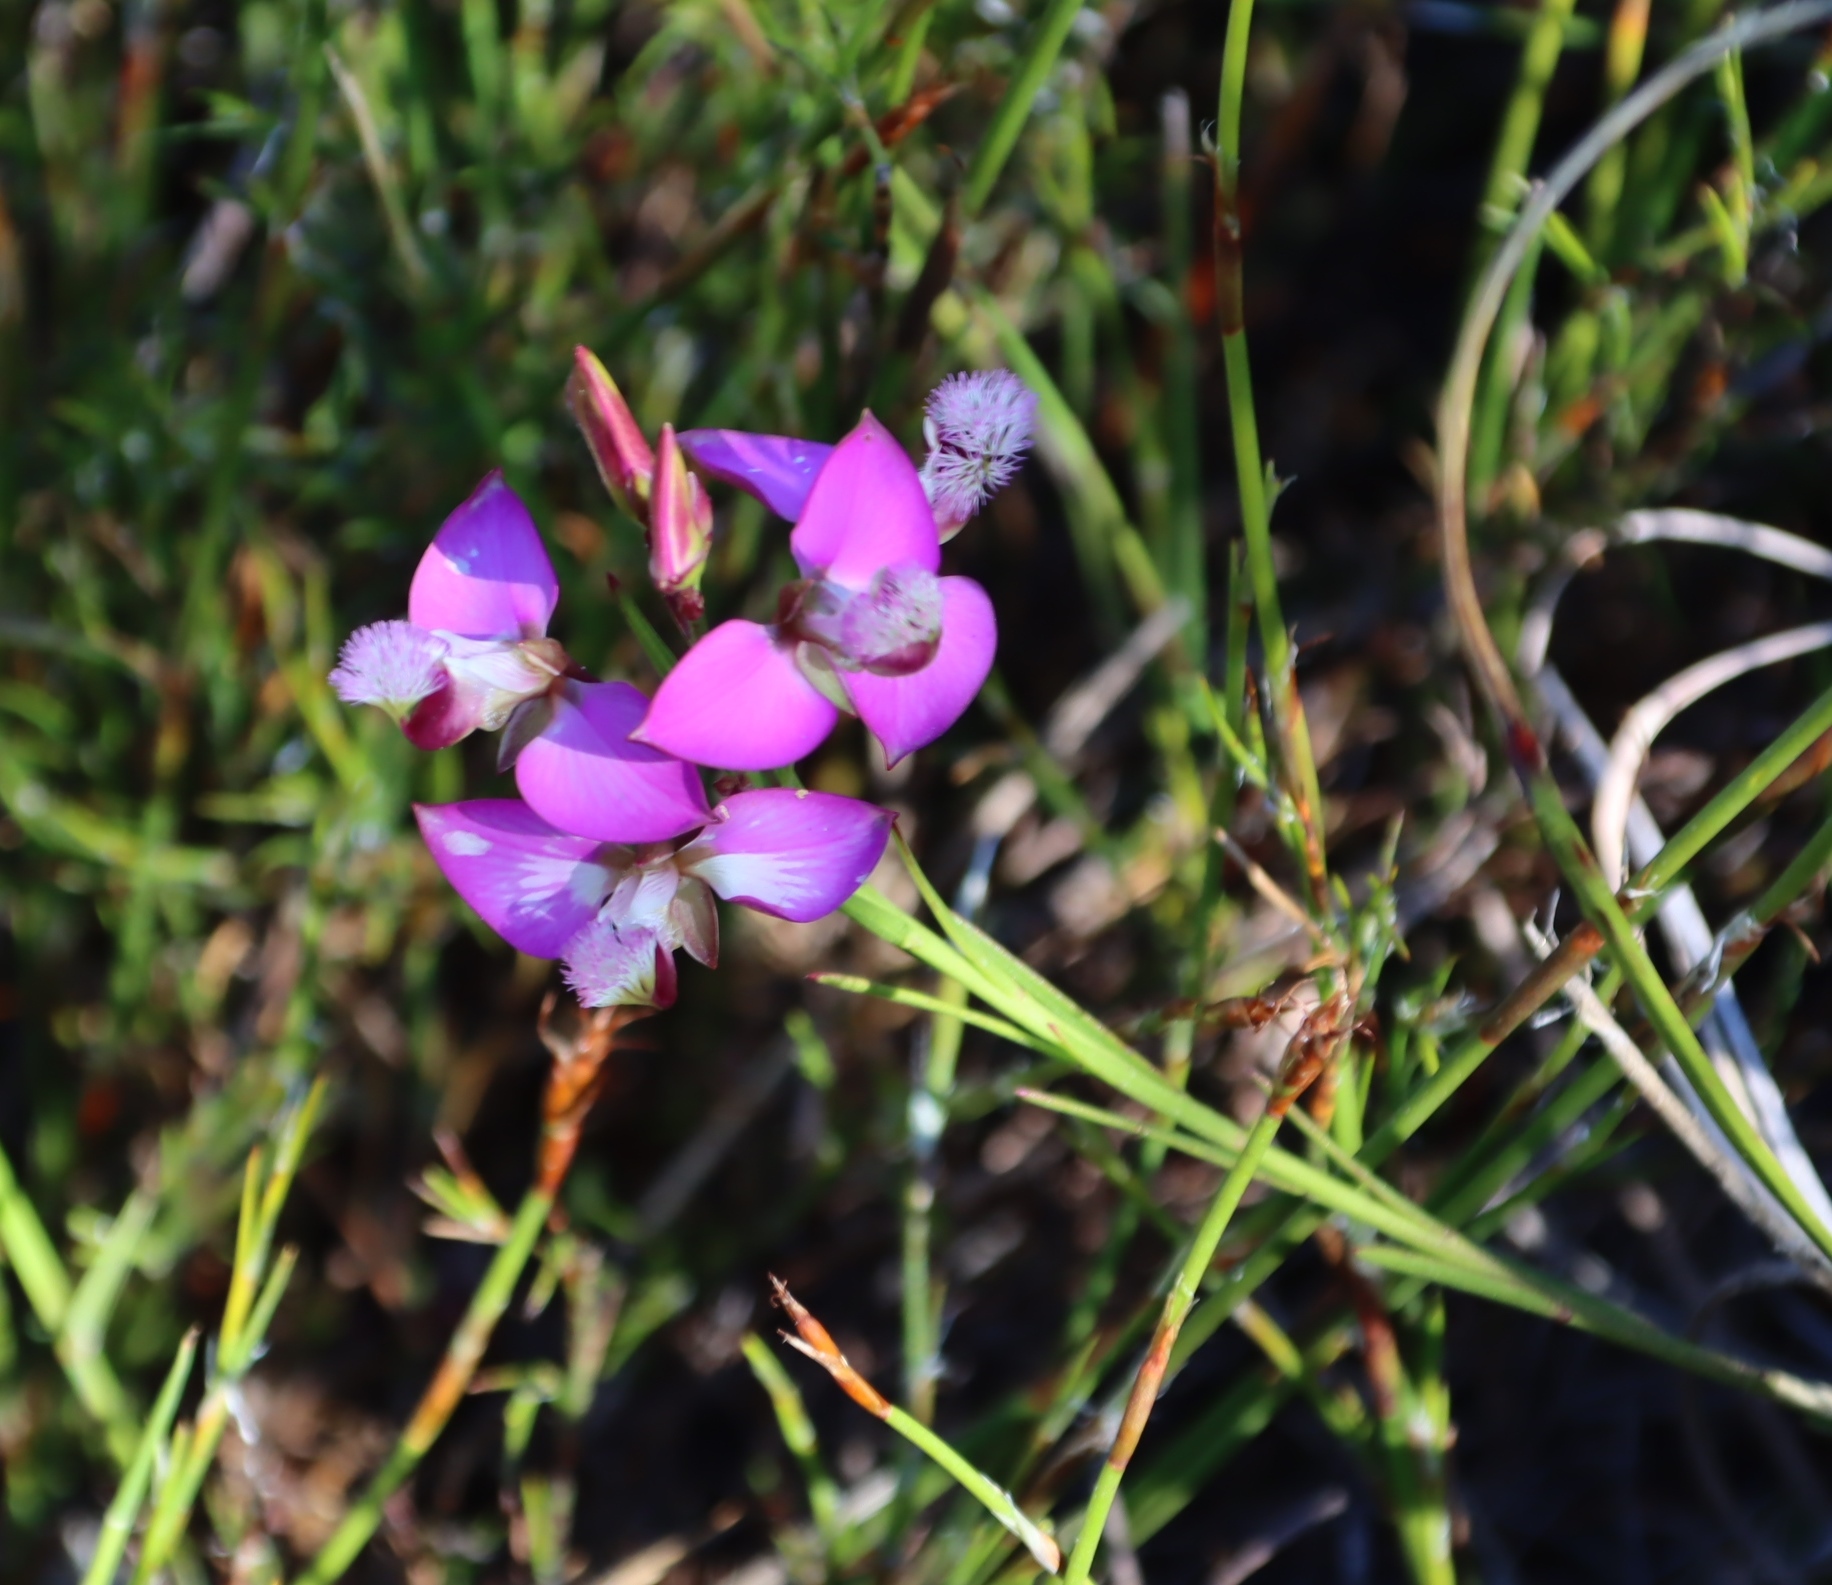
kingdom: Plantae
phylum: Tracheophyta
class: Magnoliopsida
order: Fabales
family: Polygalaceae
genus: Polygala
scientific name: Polygala bracteolata
